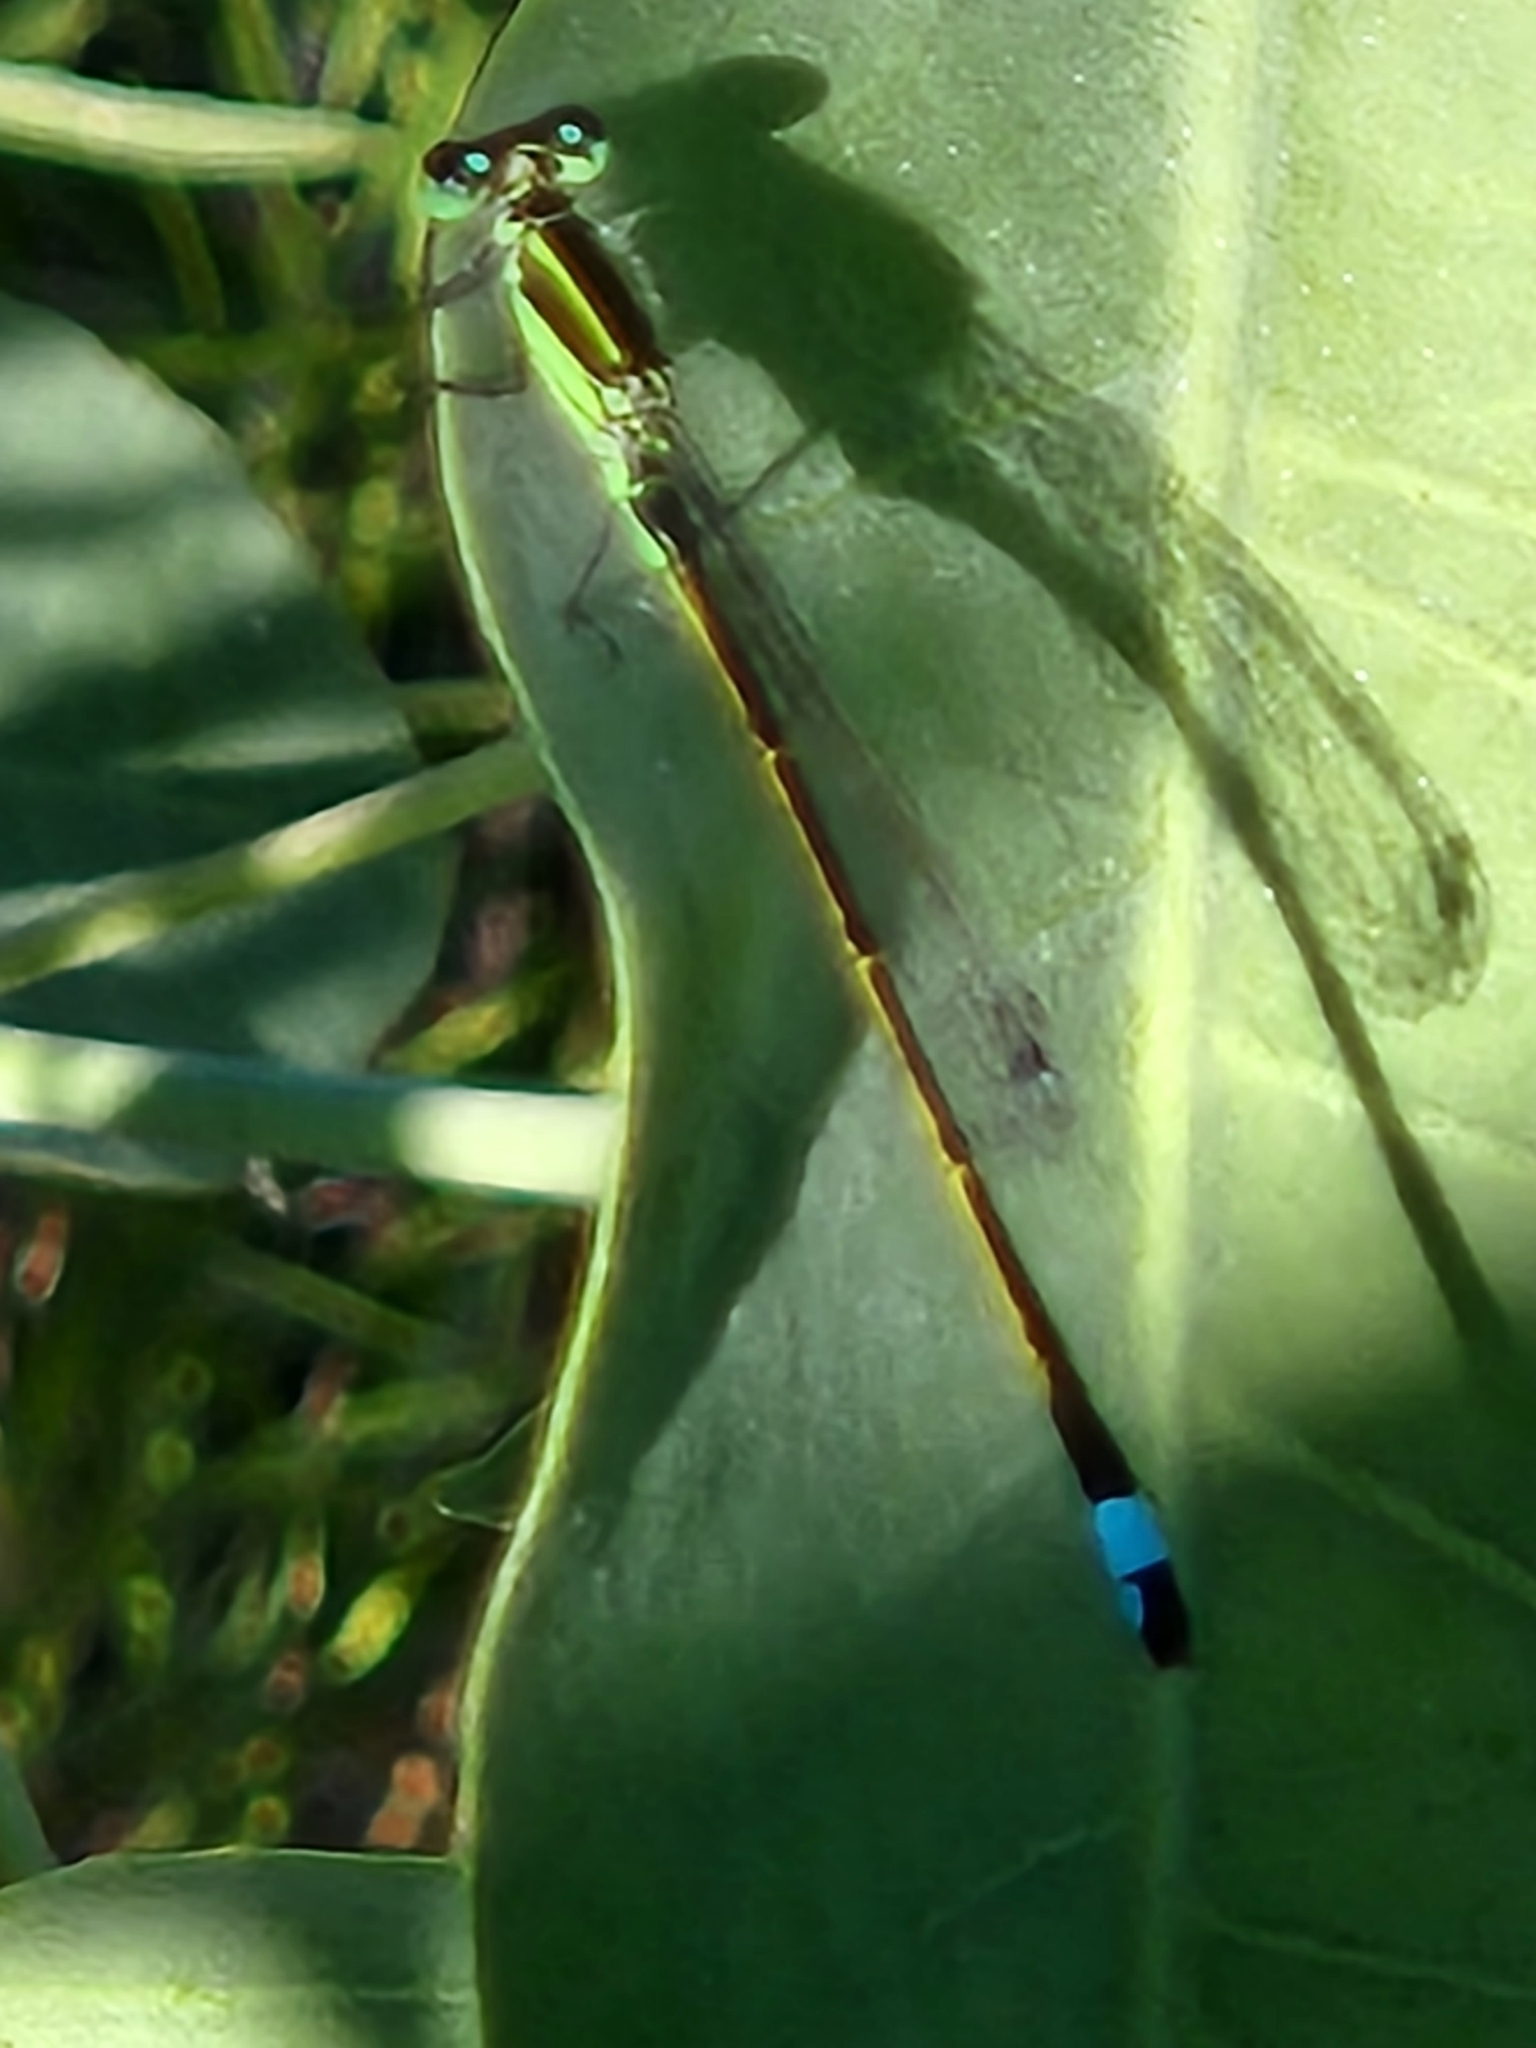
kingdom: Animalia
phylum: Arthropoda
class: Insecta
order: Odonata
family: Coenagrionidae
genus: Ischnura
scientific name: Ischnura ramburii
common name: Rambur's forktail
